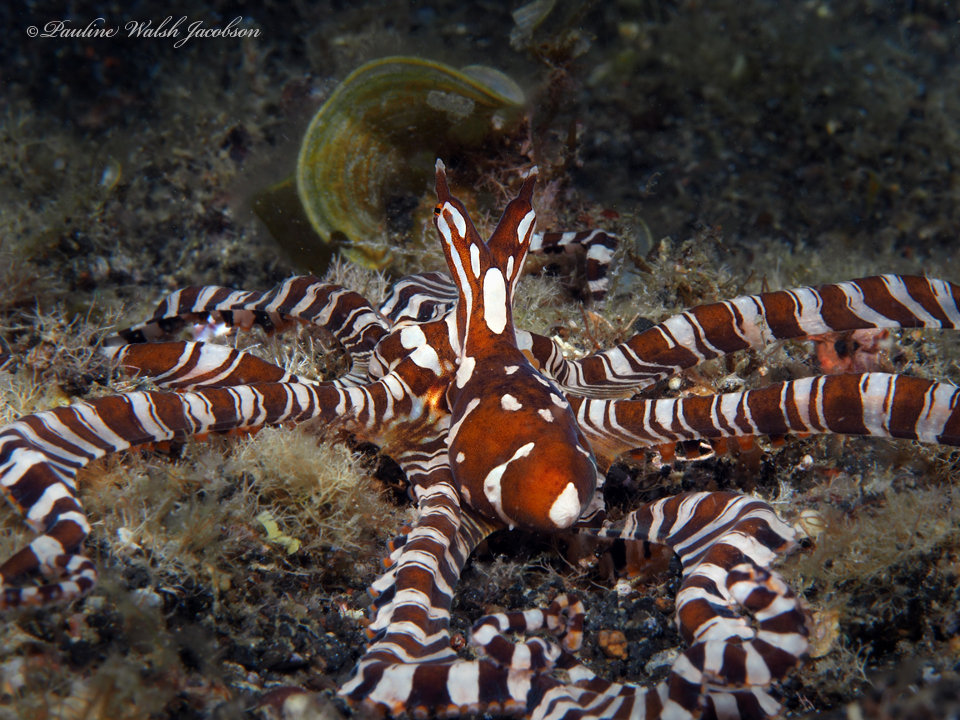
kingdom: Animalia
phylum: Mollusca
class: Cephalopoda
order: Octopoda
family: Octopodidae
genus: Wunderpus
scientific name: Wunderpus photogenicus
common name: Wunderpus
